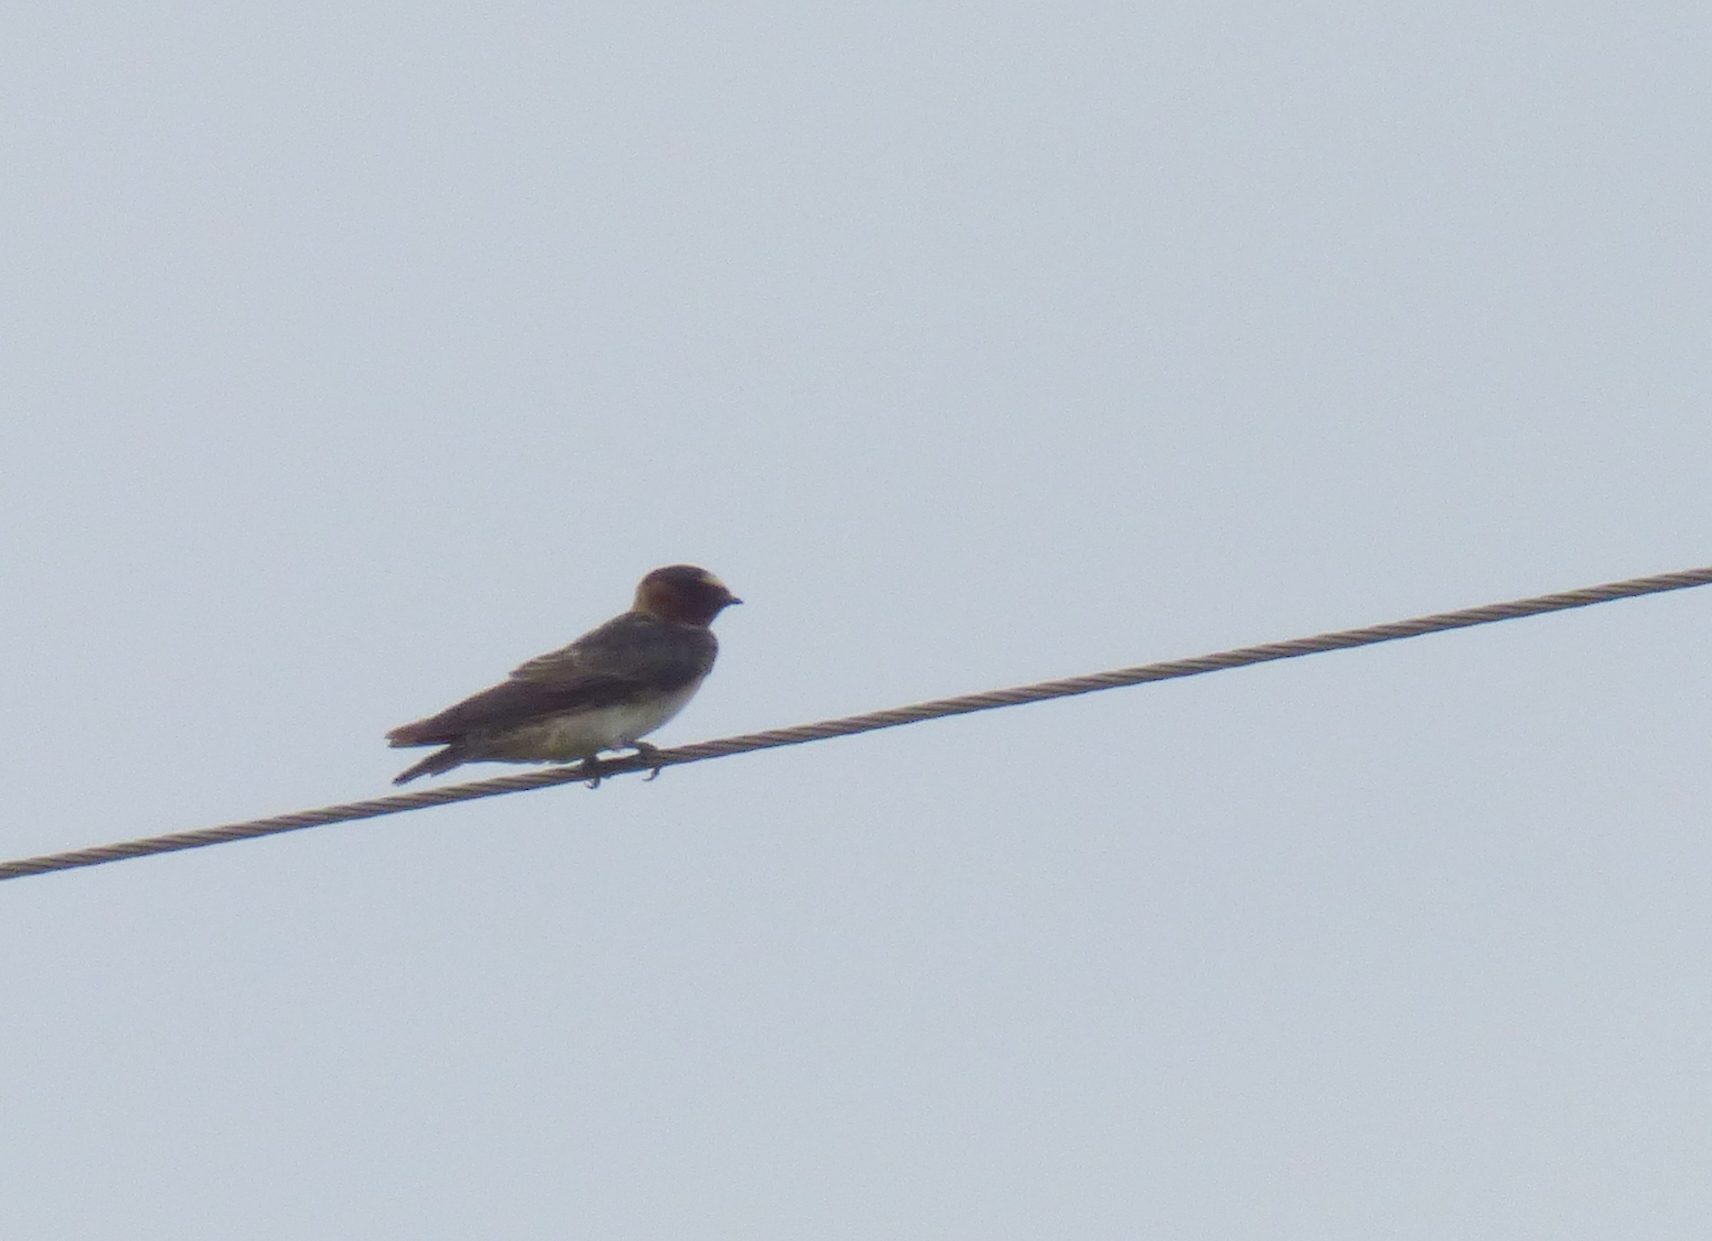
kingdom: Animalia
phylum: Chordata
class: Aves
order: Passeriformes
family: Hirundinidae
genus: Petrochelidon
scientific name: Petrochelidon pyrrhonota
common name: American cliff swallow
